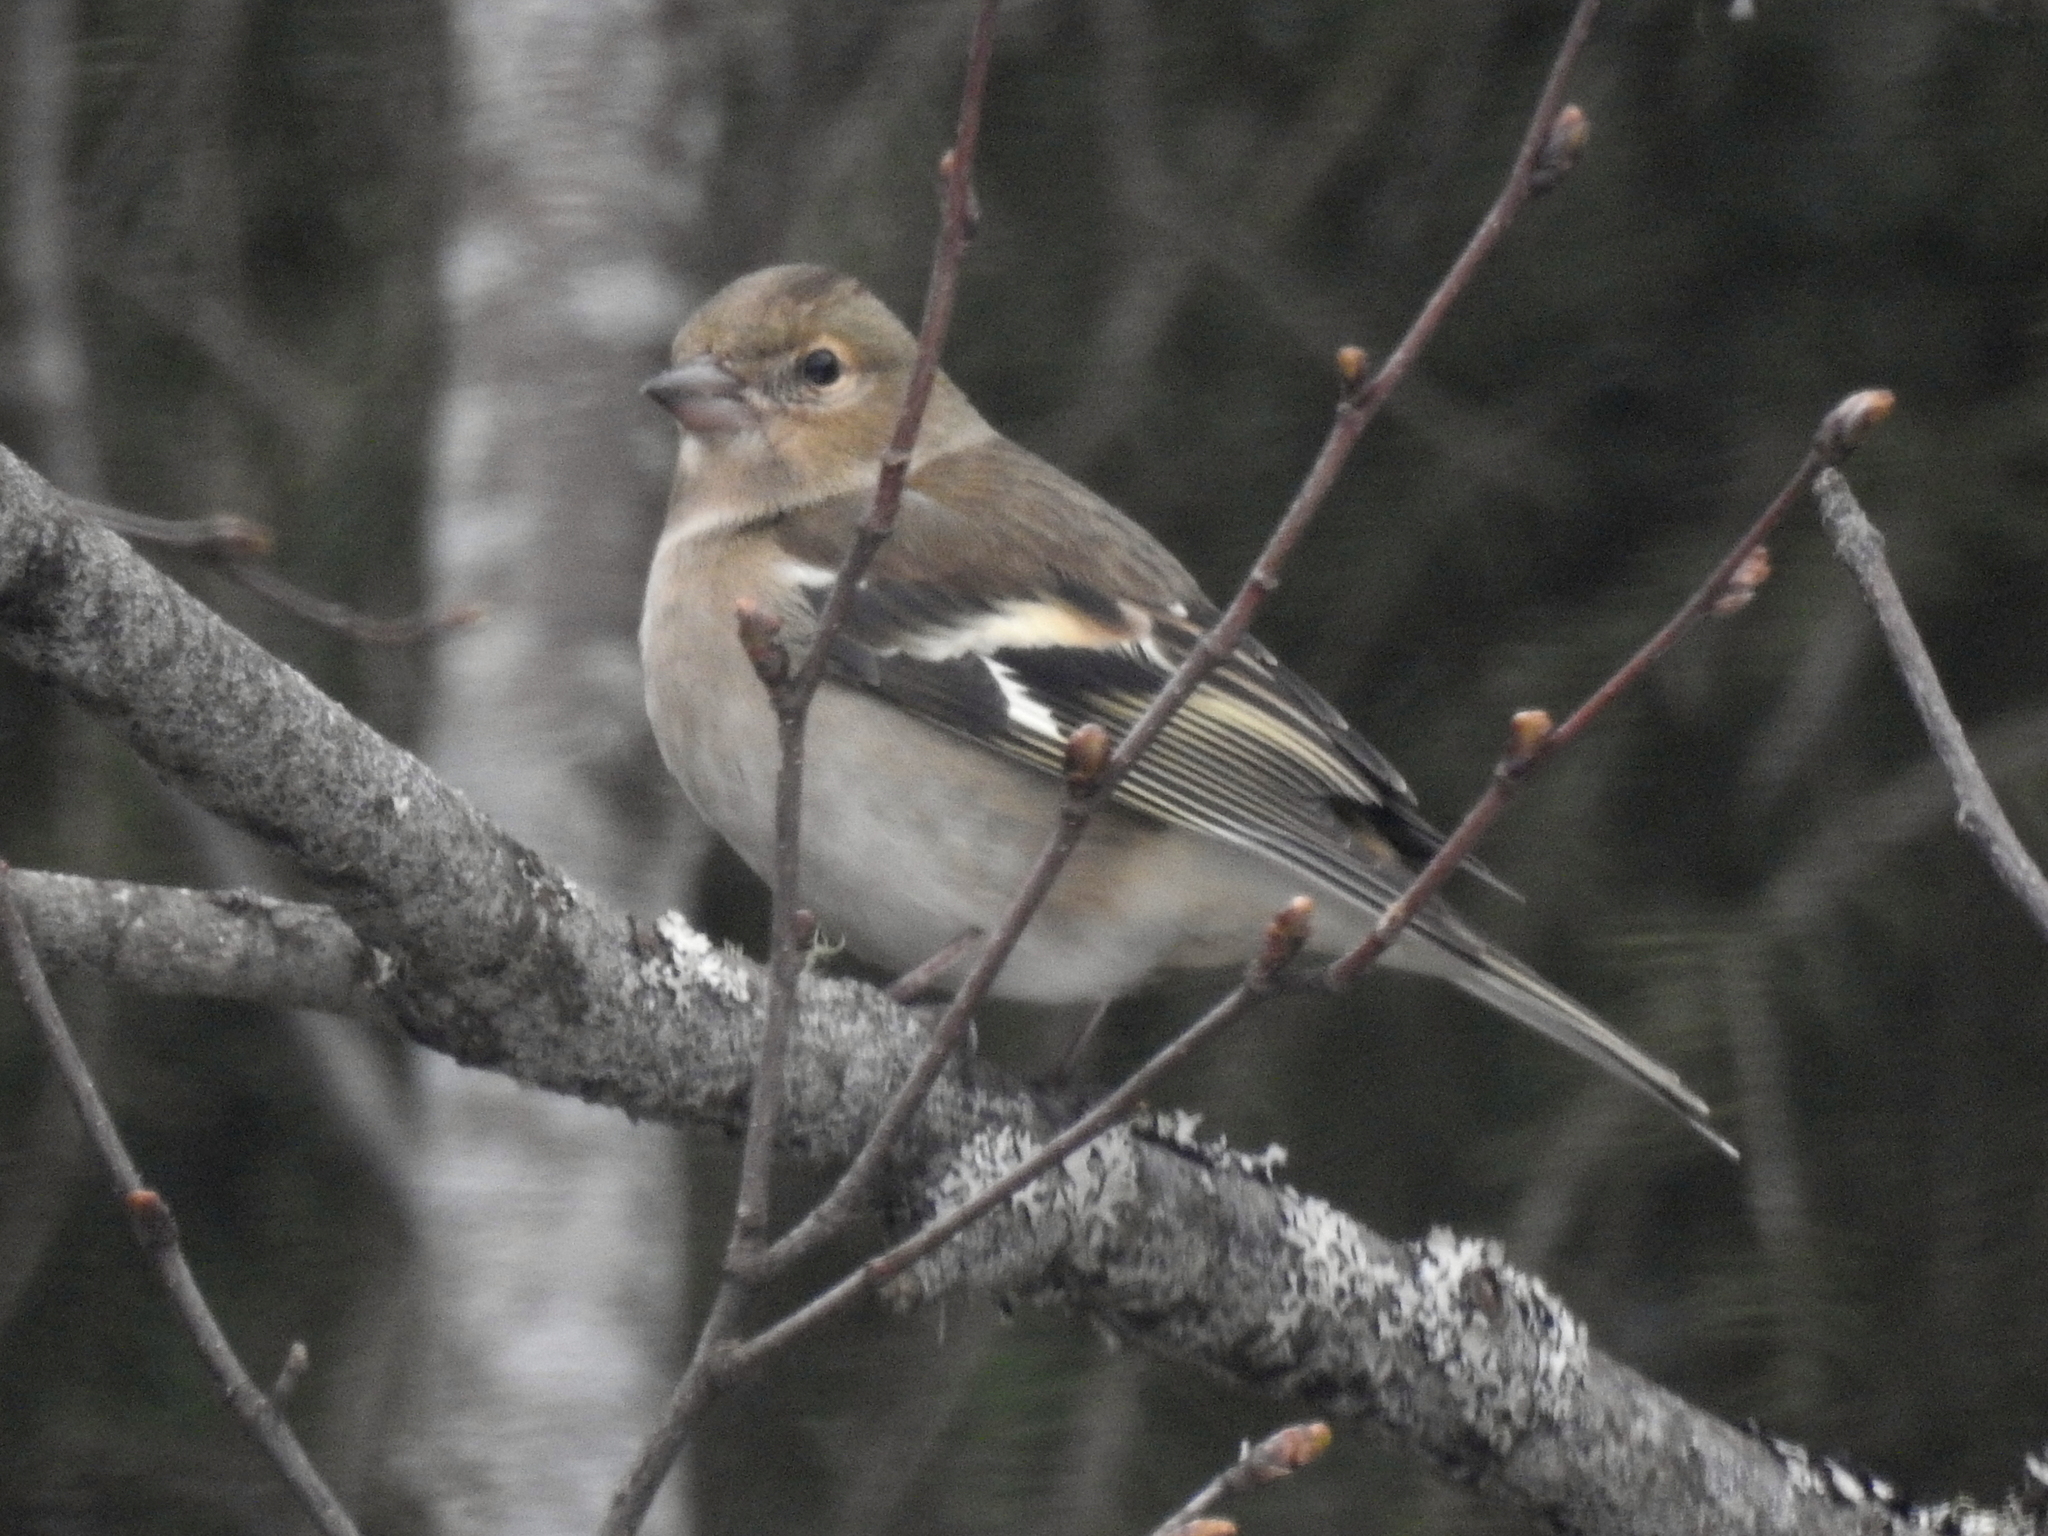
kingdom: Animalia
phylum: Chordata
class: Aves
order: Passeriformes
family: Fringillidae
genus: Fringilla
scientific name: Fringilla coelebs
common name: Common chaffinch
